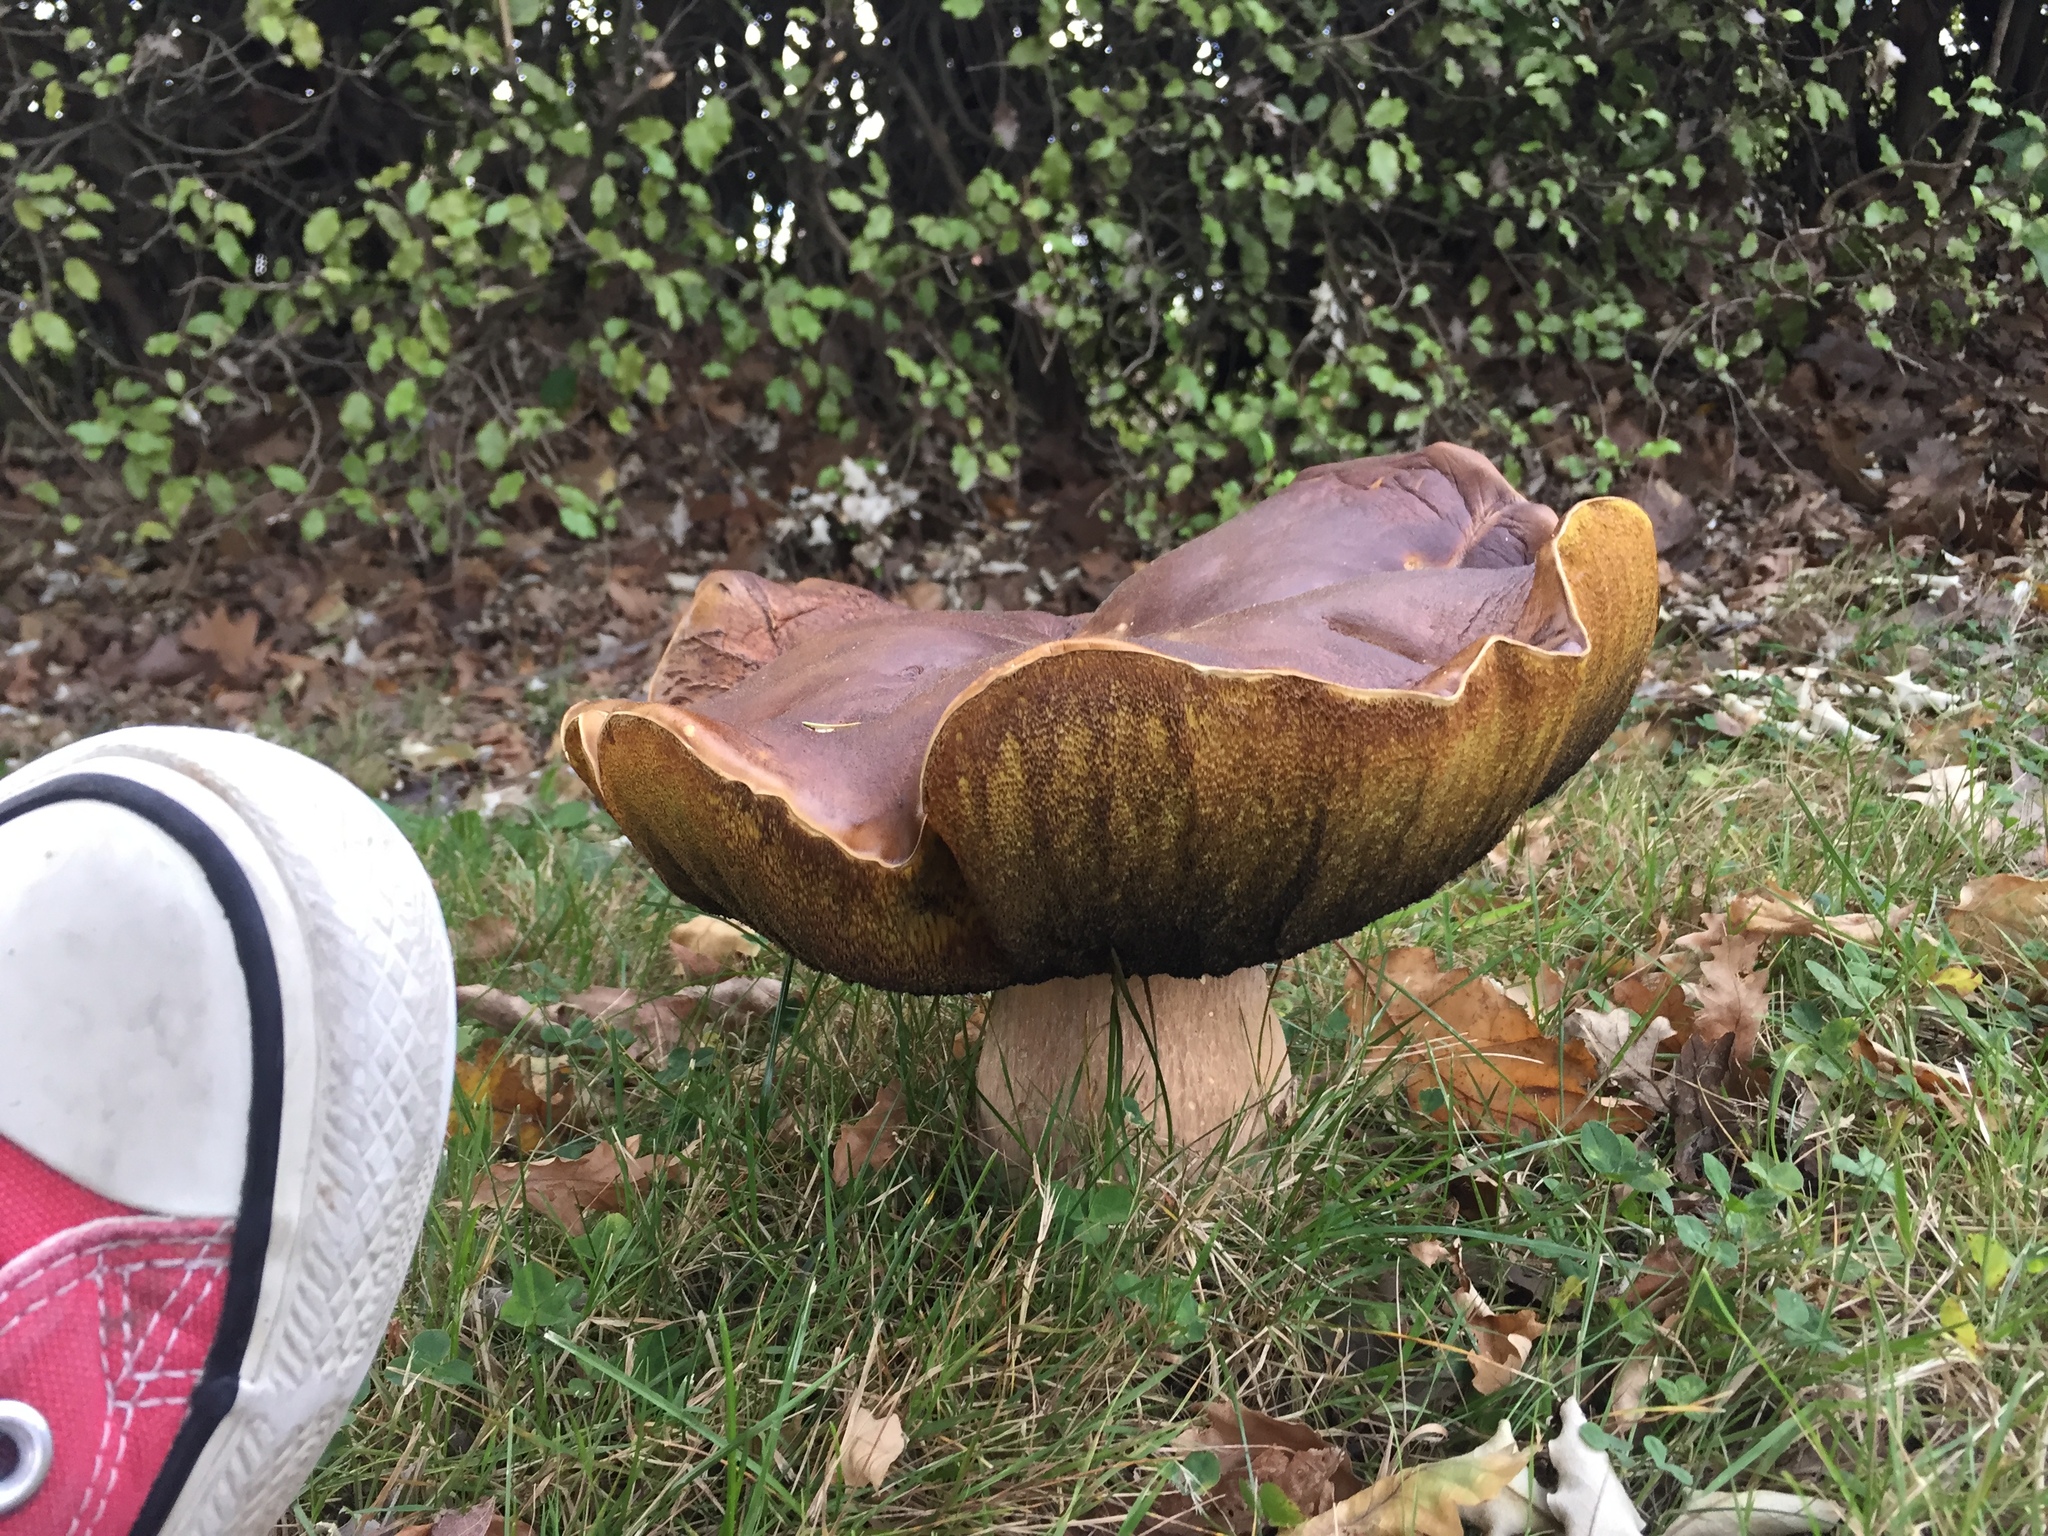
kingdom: Fungi
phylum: Basidiomycota
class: Agaricomycetes
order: Boletales
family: Boletaceae
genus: Boletus
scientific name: Boletus edulis
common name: Cep
